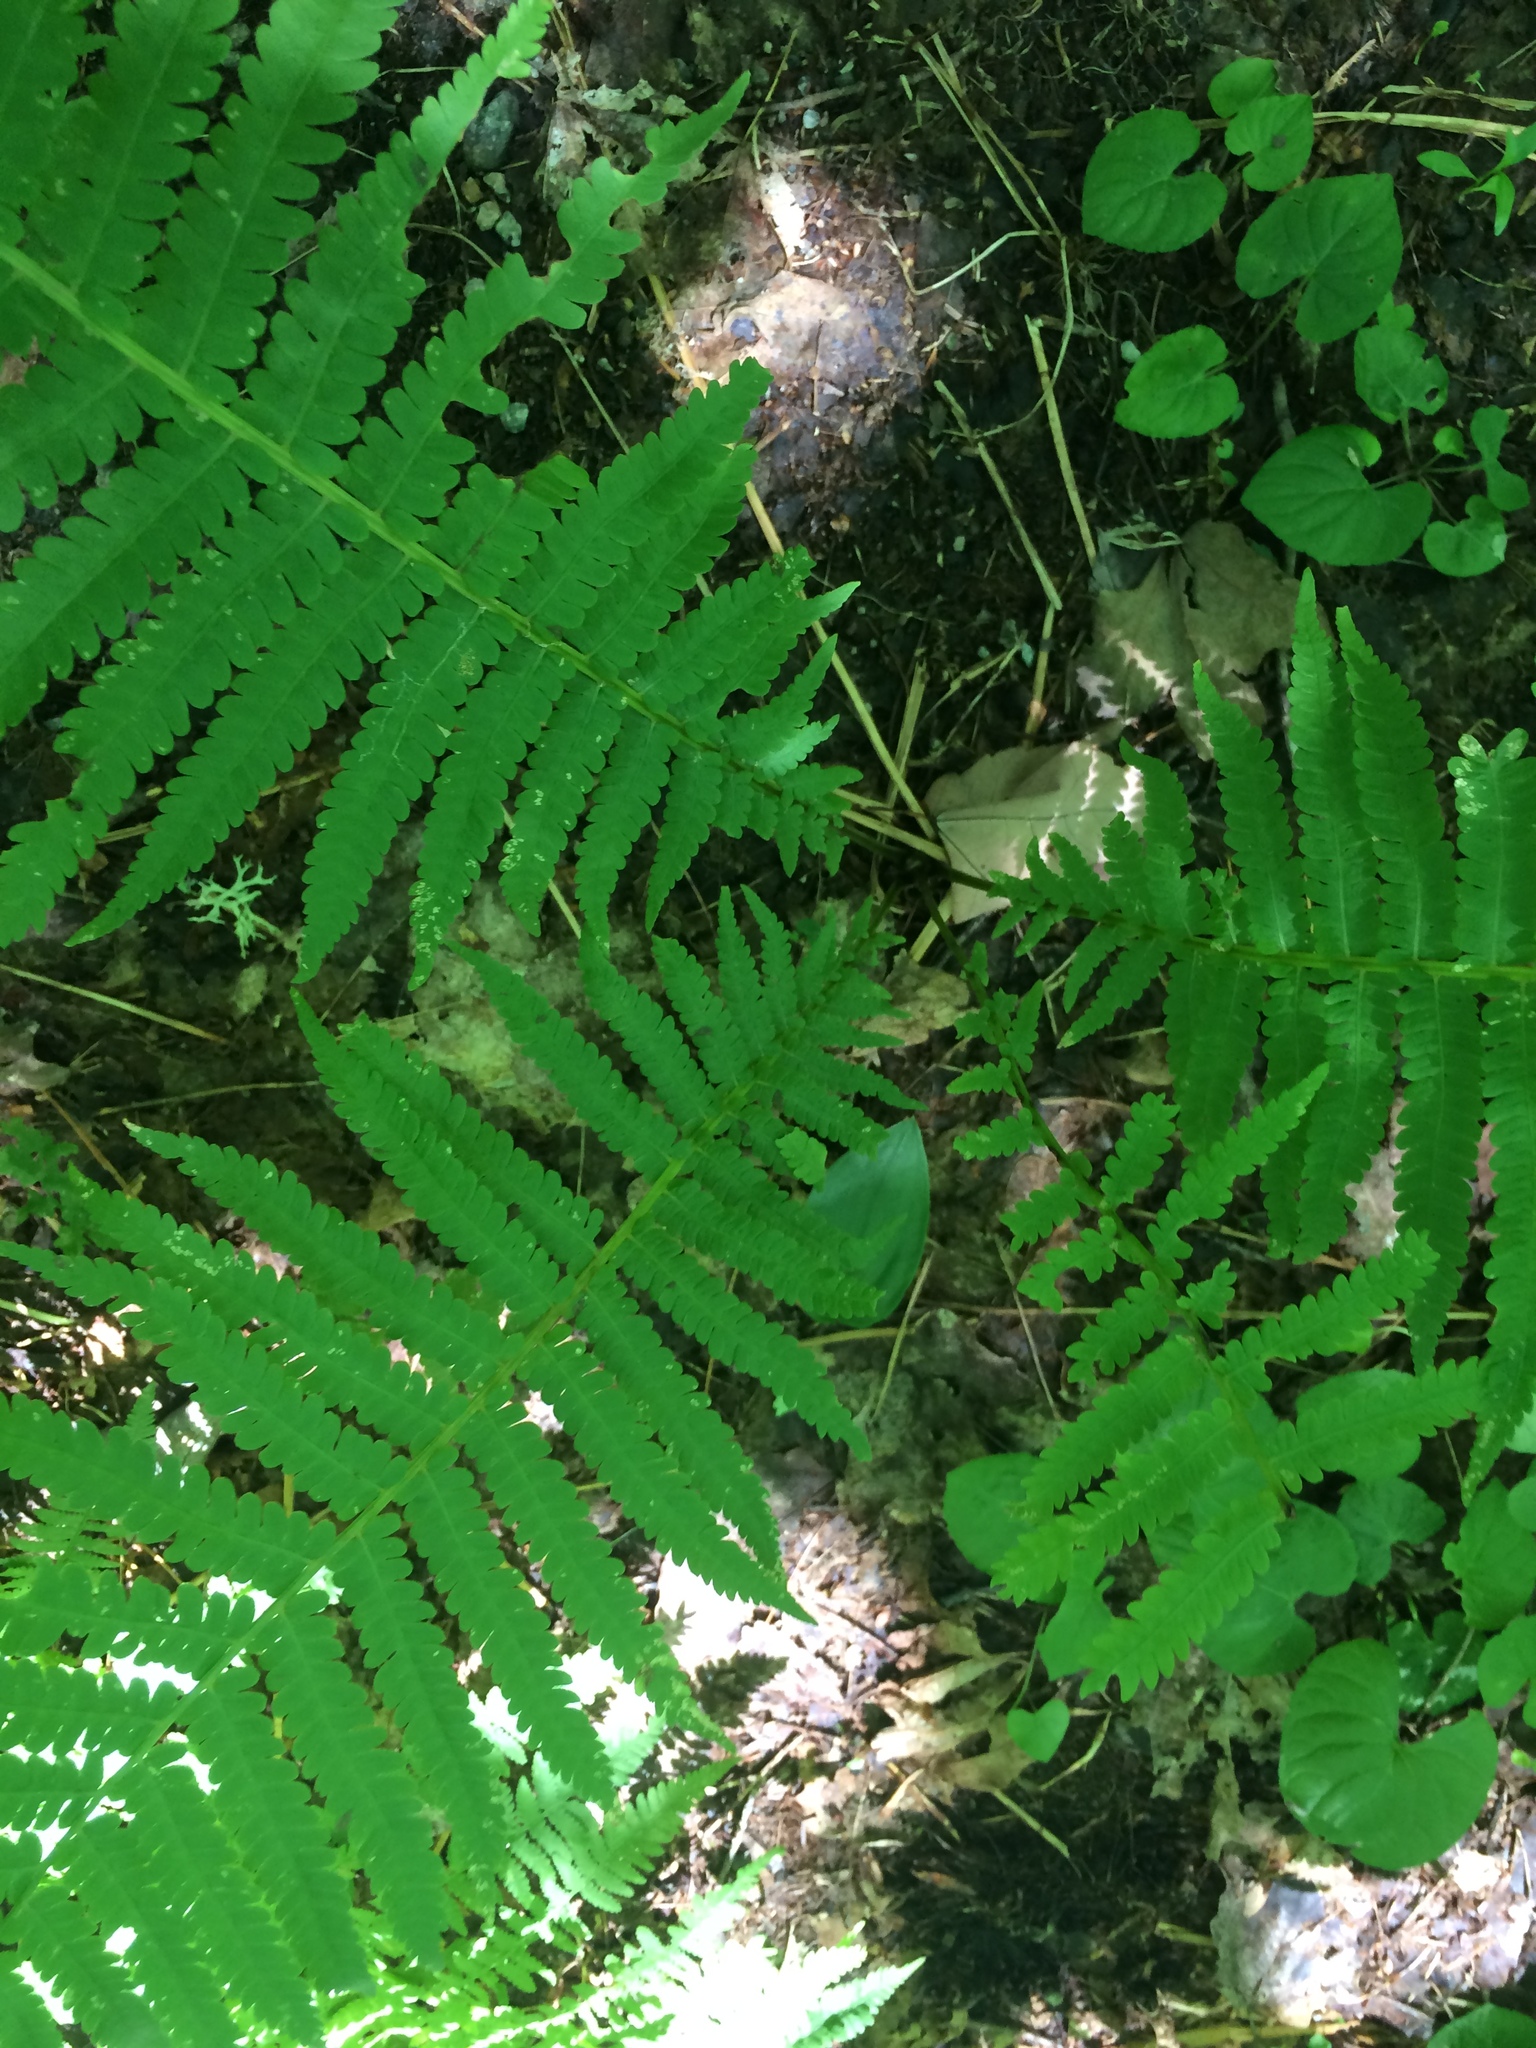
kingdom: Plantae
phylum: Tracheophyta
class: Polypodiopsida
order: Polypodiales
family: Onocleaceae
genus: Matteuccia
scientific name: Matteuccia struthiopteris
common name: Ostrich fern
